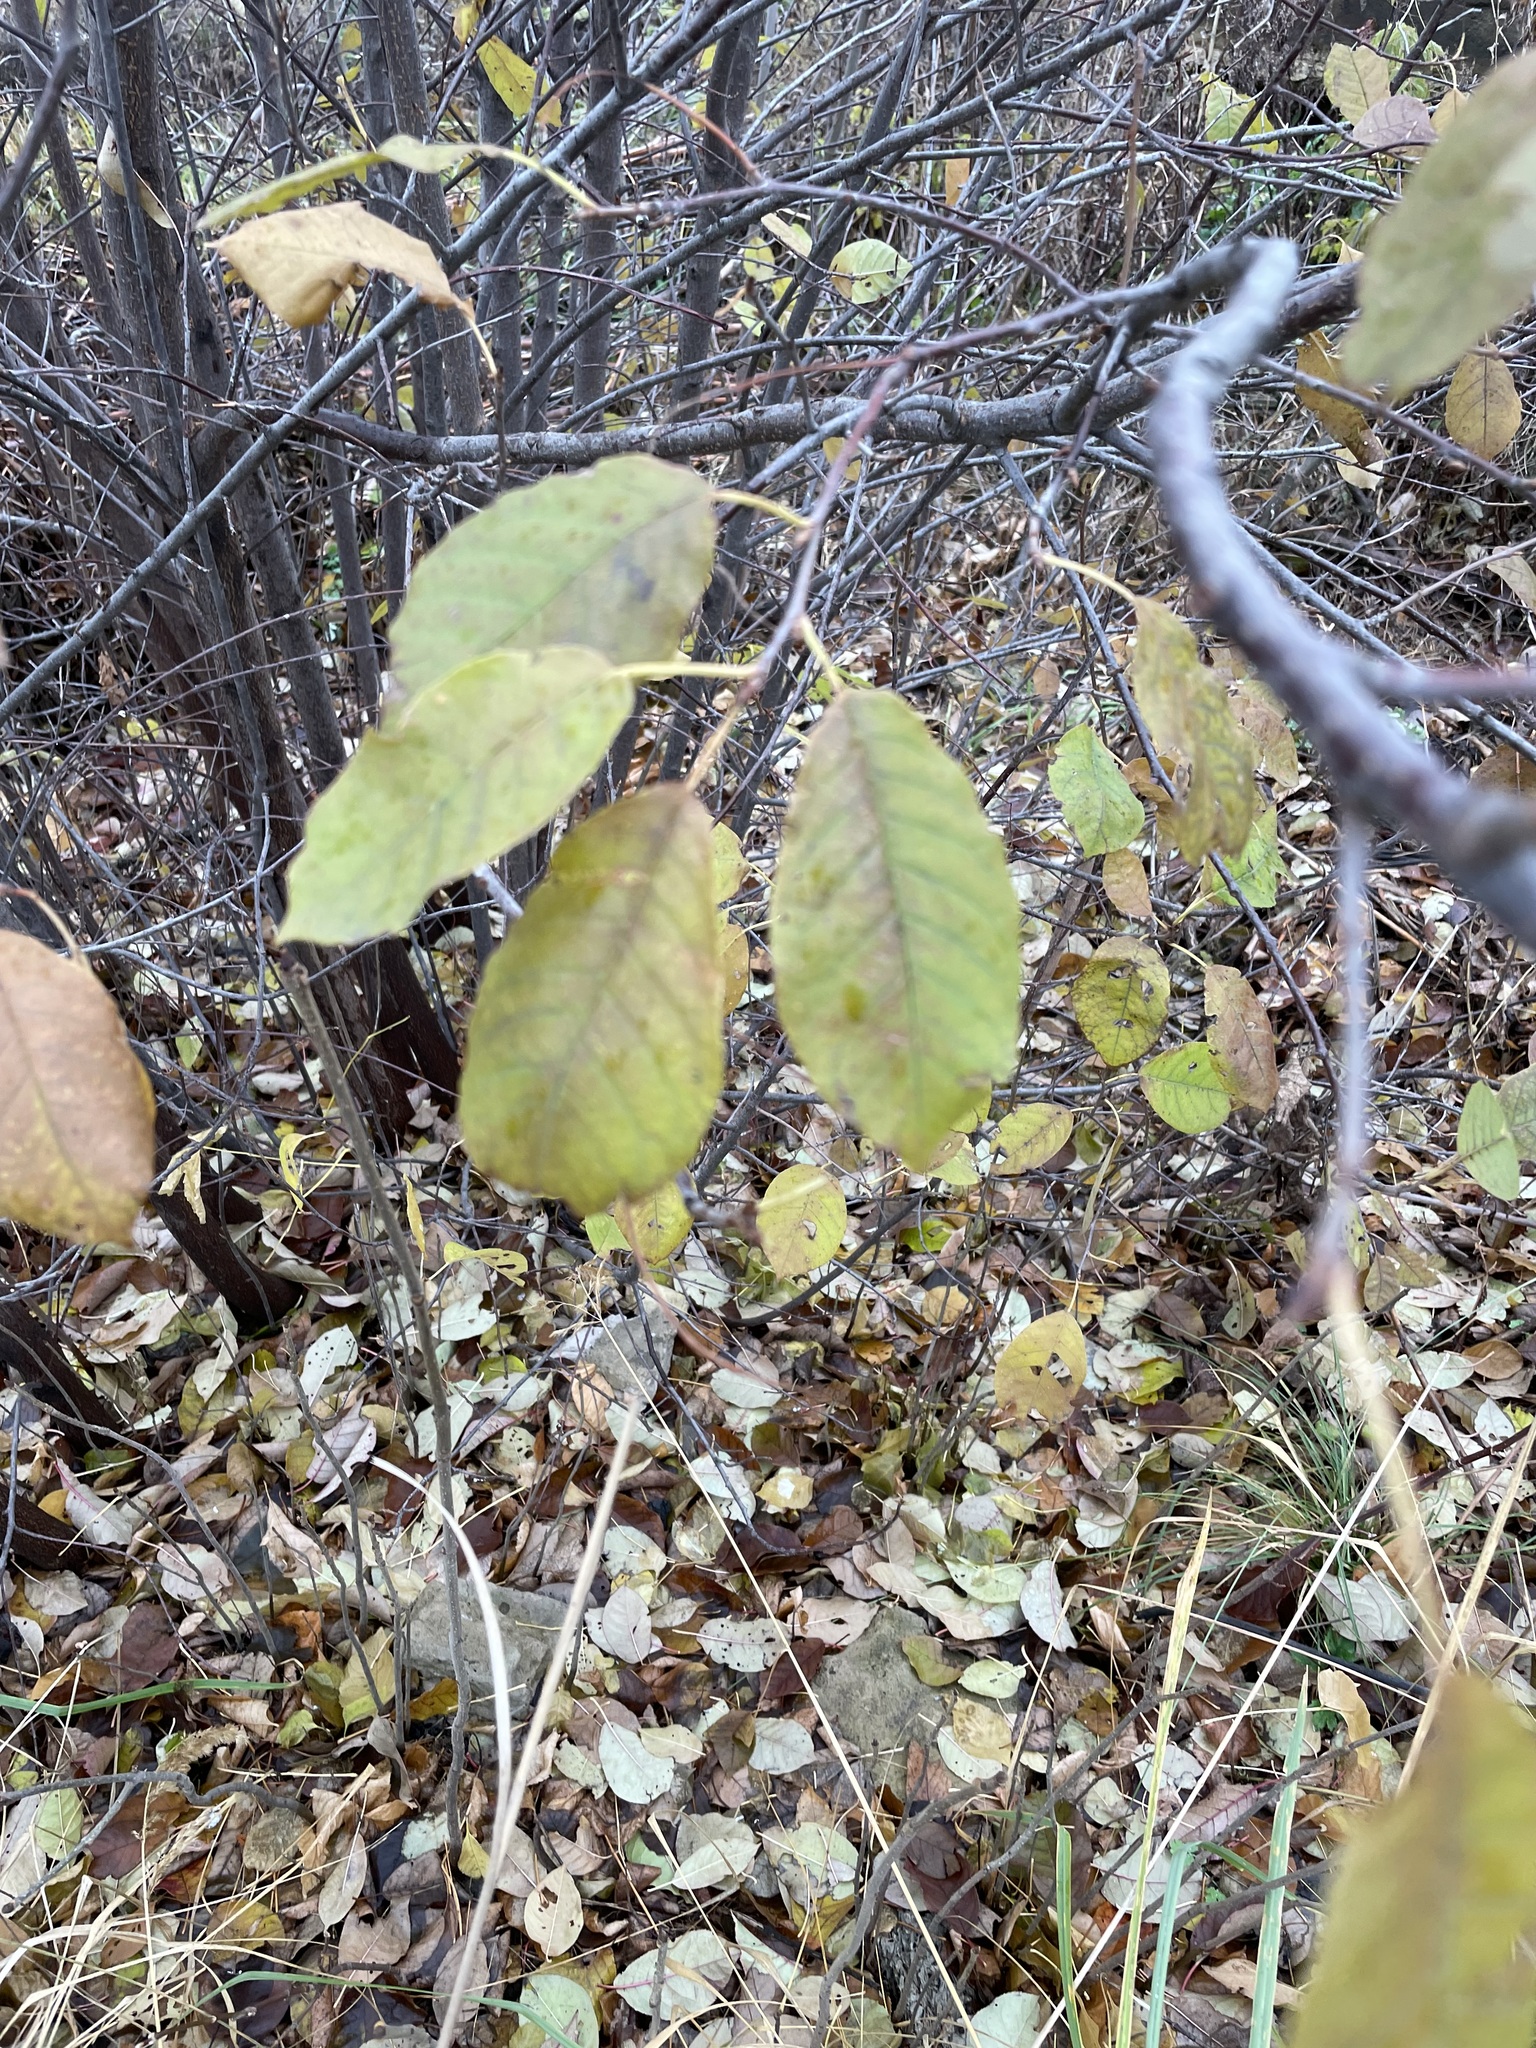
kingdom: Plantae
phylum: Tracheophyta
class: Magnoliopsida
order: Rosales
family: Rosaceae
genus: Prunus
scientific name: Prunus padus
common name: Bird cherry
